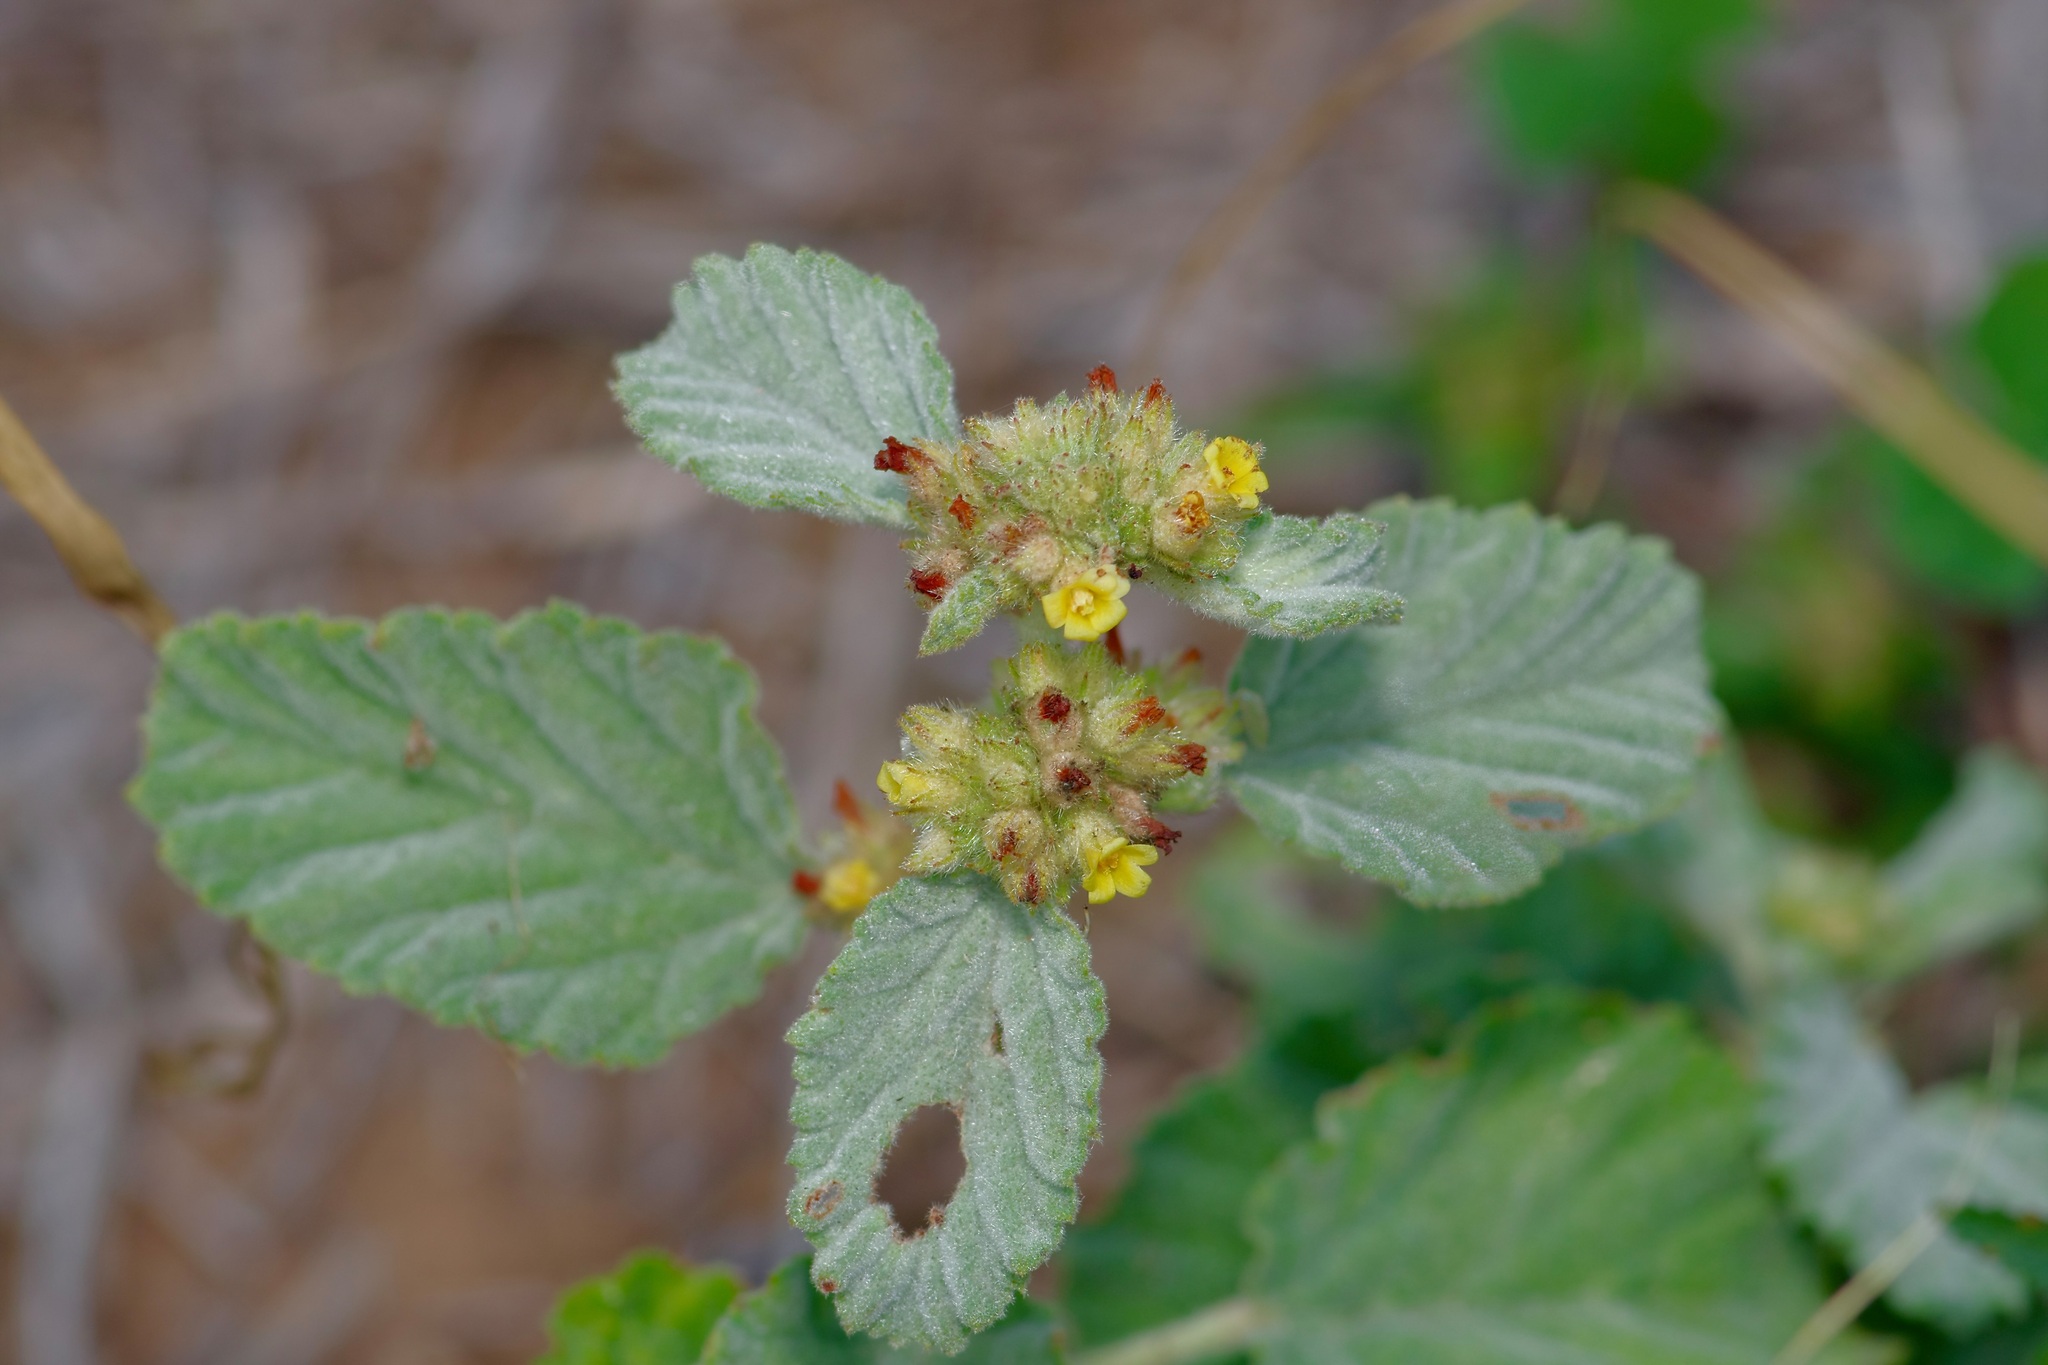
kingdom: Plantae
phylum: Tracheophyta
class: Magnoliopsida
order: Malvales
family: Malvaceae
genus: Waltheria
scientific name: Waltheria indica
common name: Leather-coat
